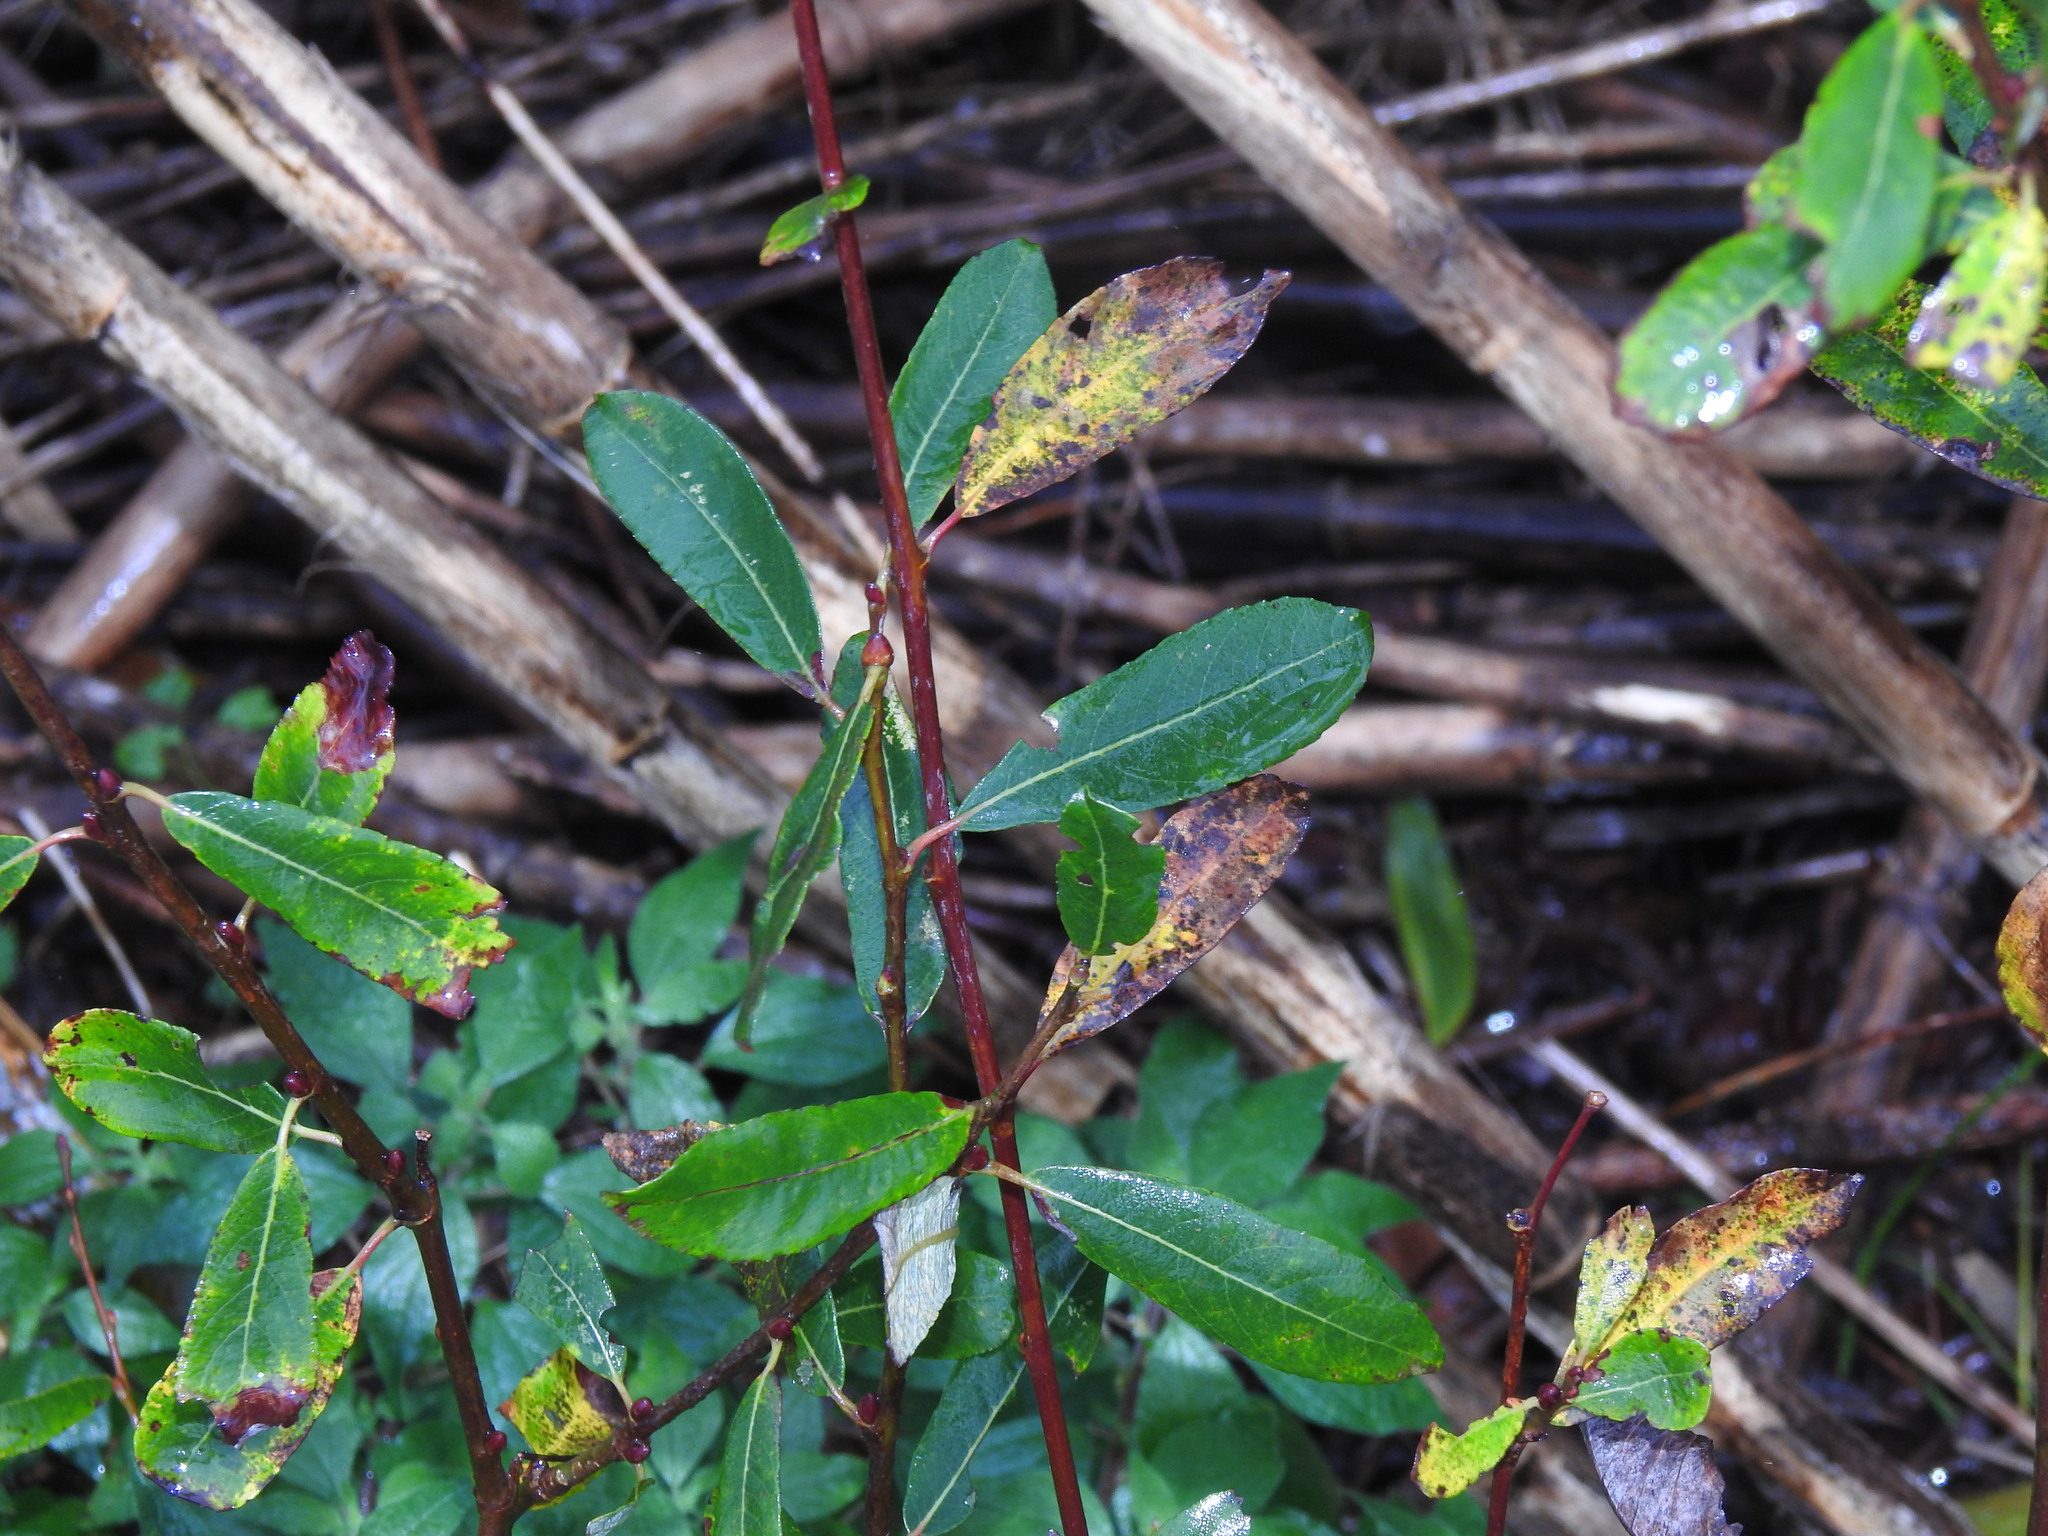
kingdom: Plantae
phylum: Tracheophyta
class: Magnoliopsida
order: Malpighiales
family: Salicaceae
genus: Salix
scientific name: Salix atrocinerea
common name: Rusty willow
